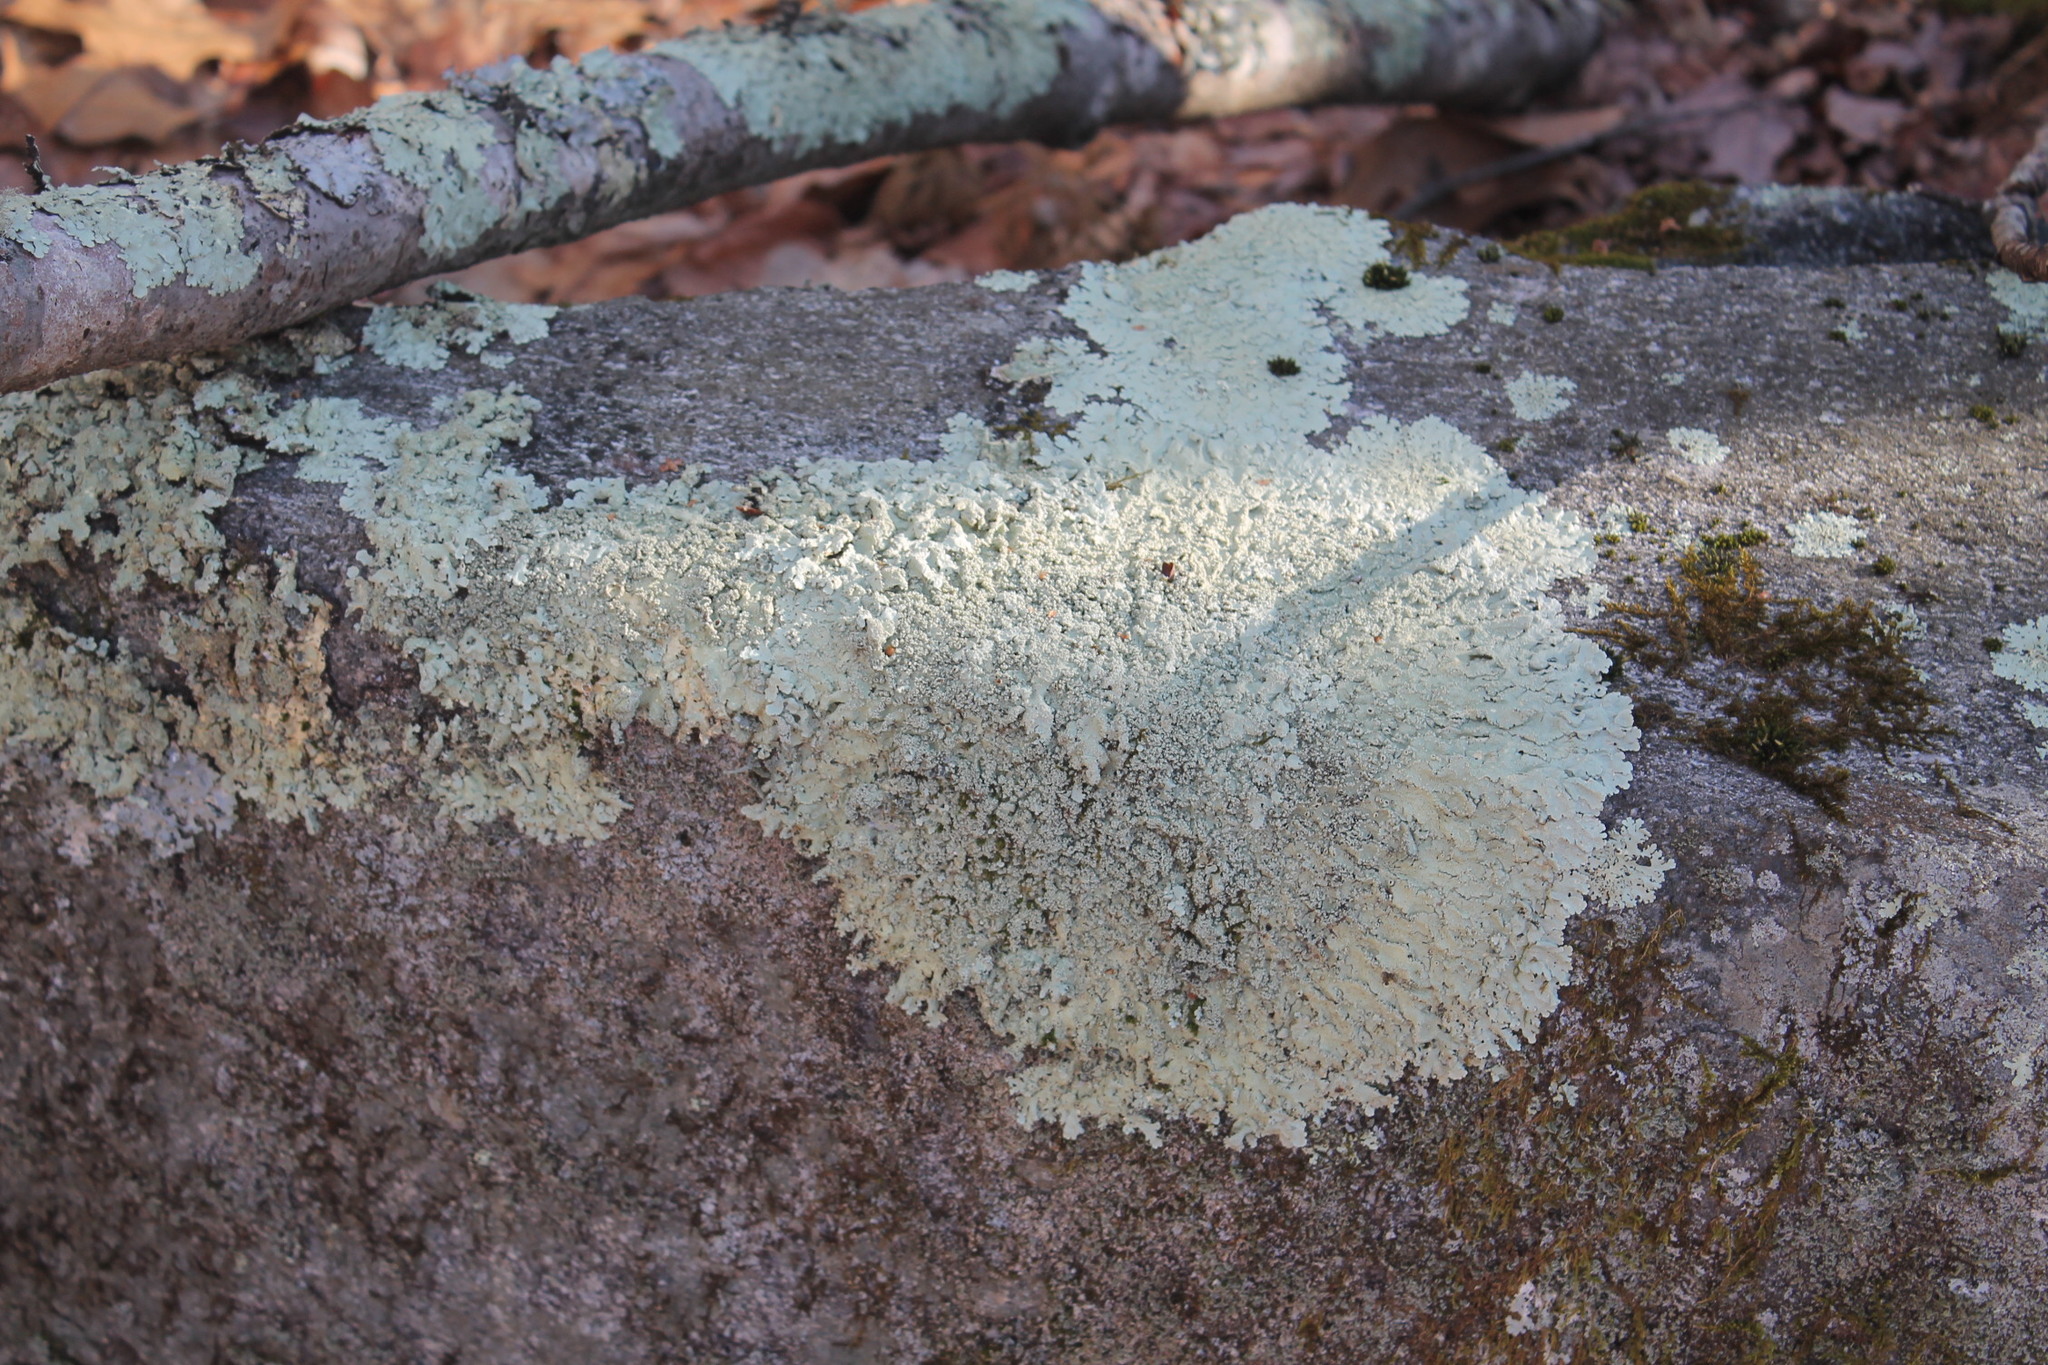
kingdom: Fungi
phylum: Ascomycota
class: Lecanoromycetes
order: Lecanorales
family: Parmeliaceae
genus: Flavoparmelia
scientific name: Flavoparmelia baltimorensis
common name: Rock greenshield
